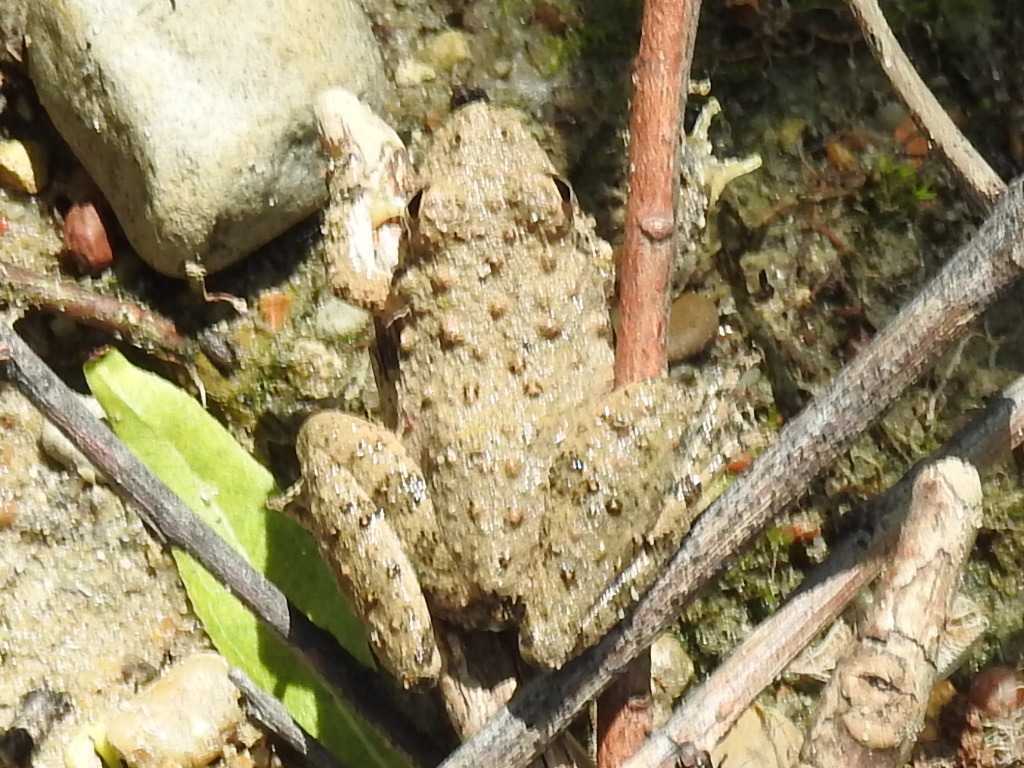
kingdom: Animalia
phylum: Chordata
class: Amphibia
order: Anura
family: Hylidae
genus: Acris
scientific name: Acris blanchardi
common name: Blanchard's cricket frog
